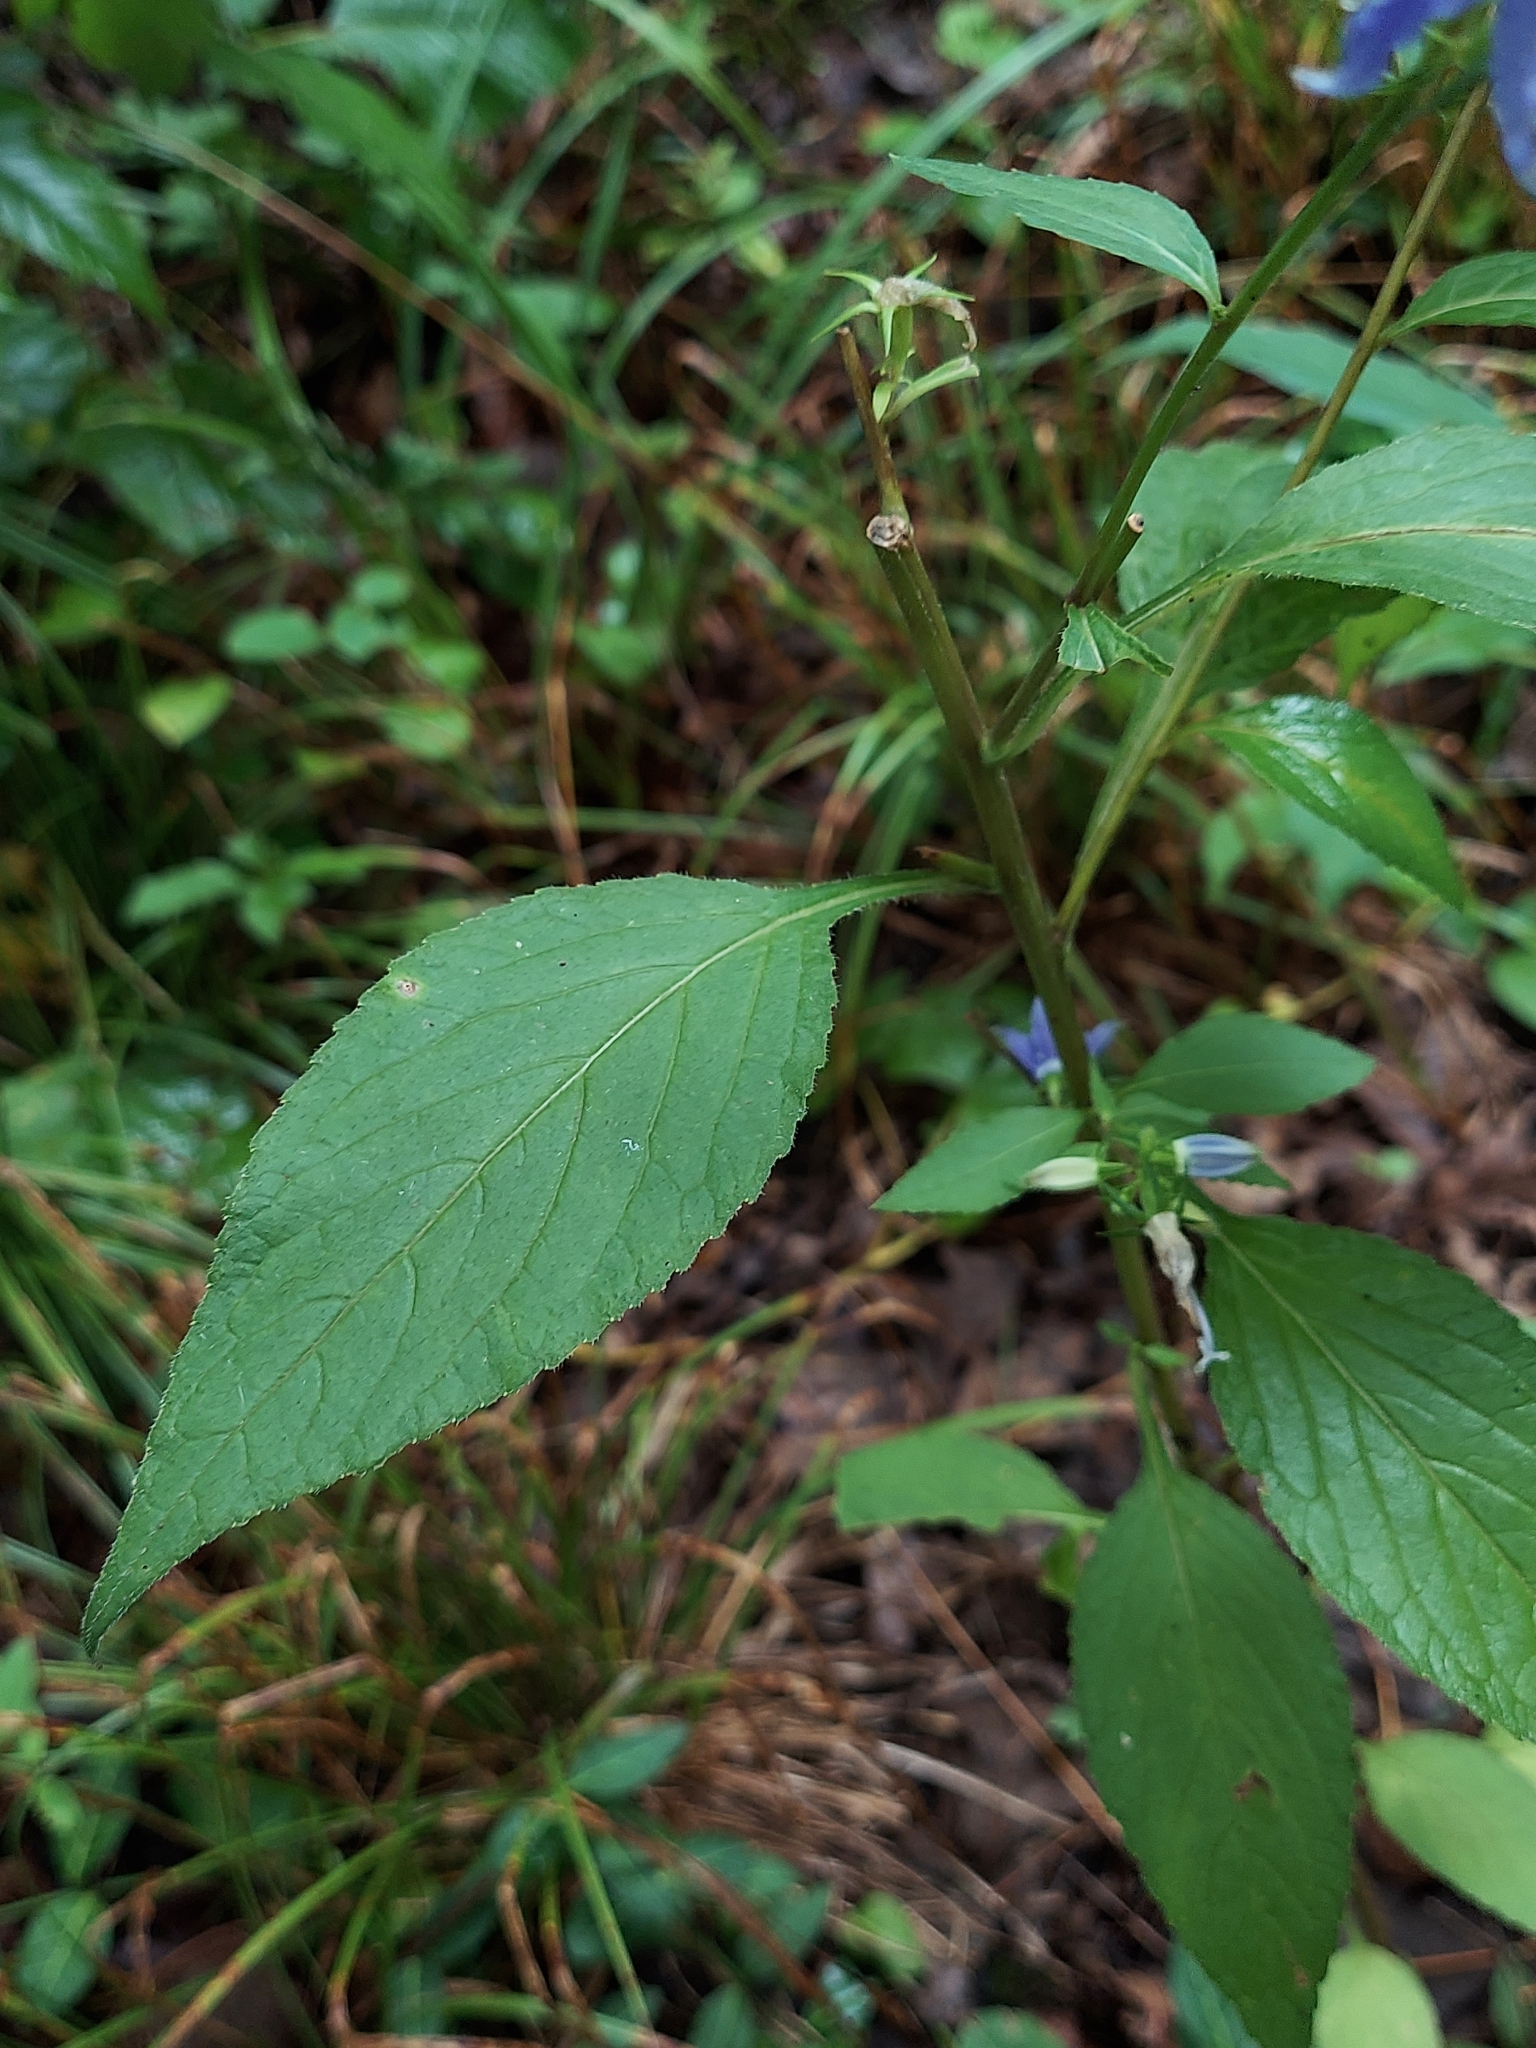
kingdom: Plantae
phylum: Tracheophyta
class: Magnoliopsida
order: Asterales
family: Campanulaceae
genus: Campanulastrum
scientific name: Campanulastrum americanum
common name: American bellflower
